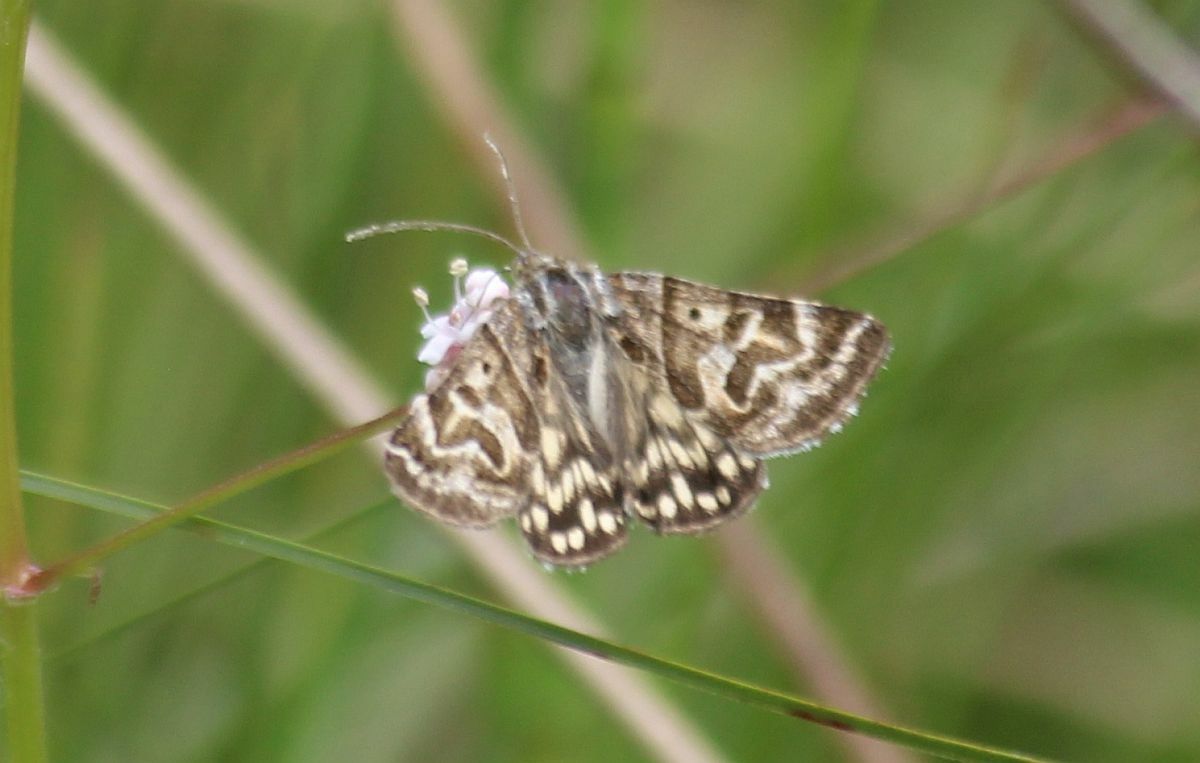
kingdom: Animalia
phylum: Arthropoda
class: Insecta
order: Lepidoptera
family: Erebidae
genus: Callistege
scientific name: Callistege mi
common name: Mother shipton
